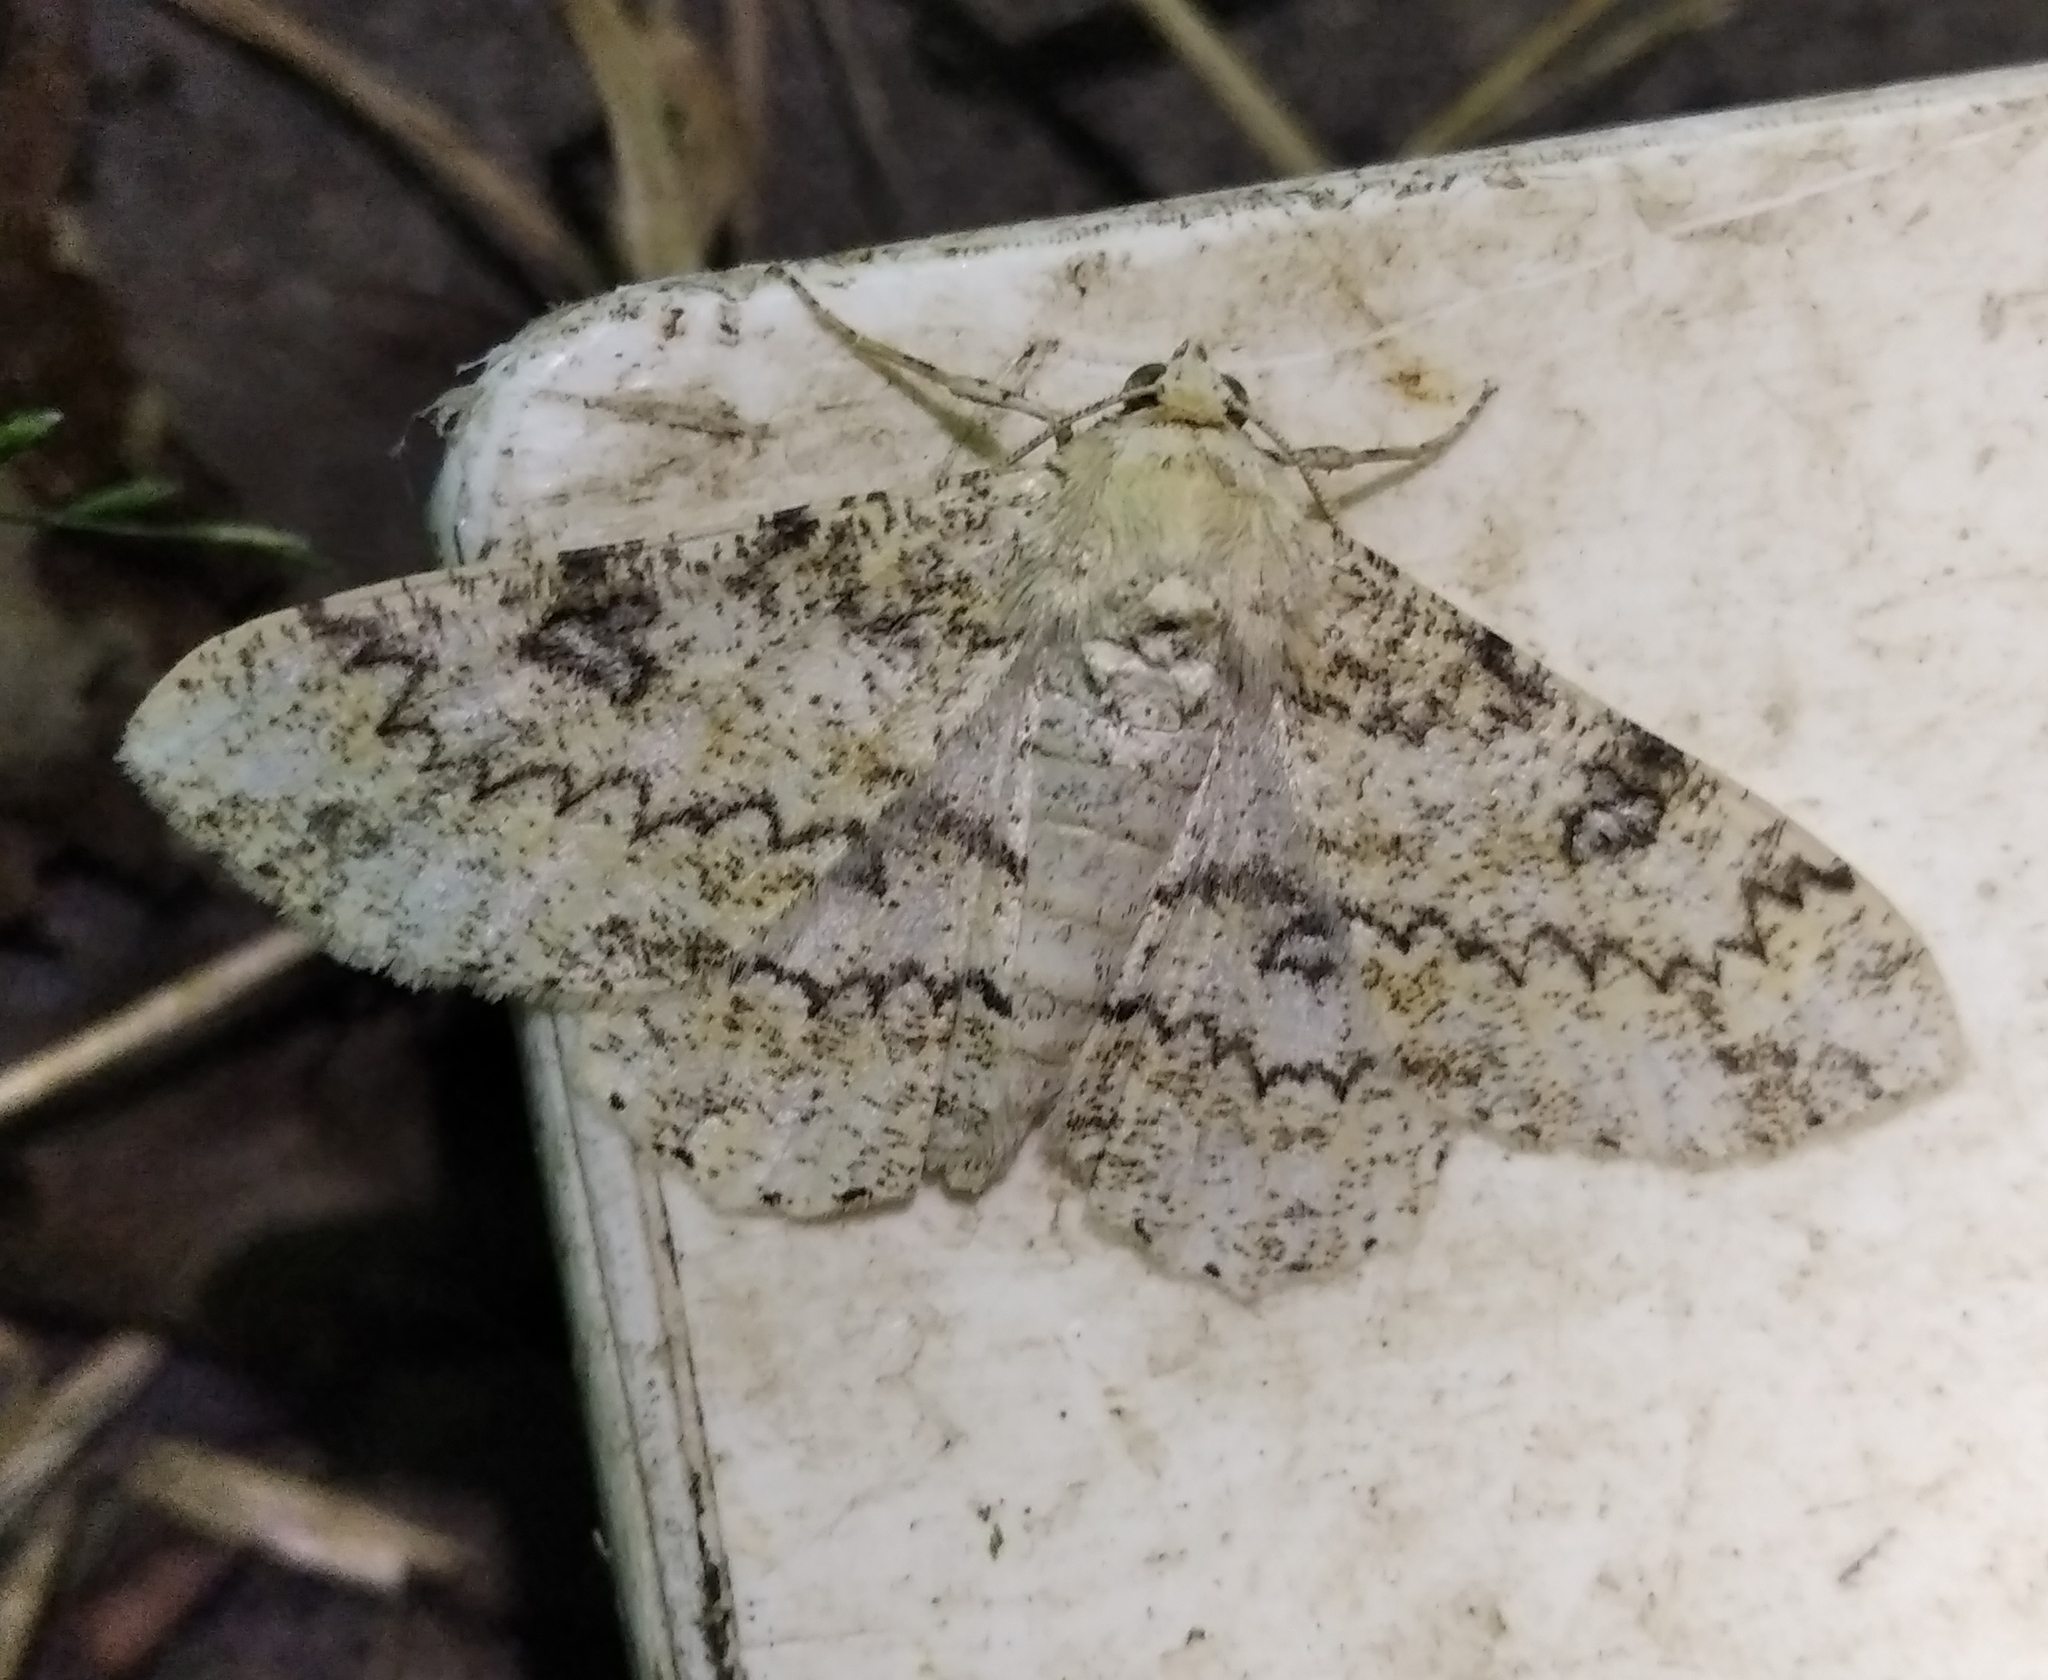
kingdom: Animalia
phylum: Arthropoda
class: Insecta
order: Lepidoptera
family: Geometridae
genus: Ascotis
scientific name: Ascotis selenaria
